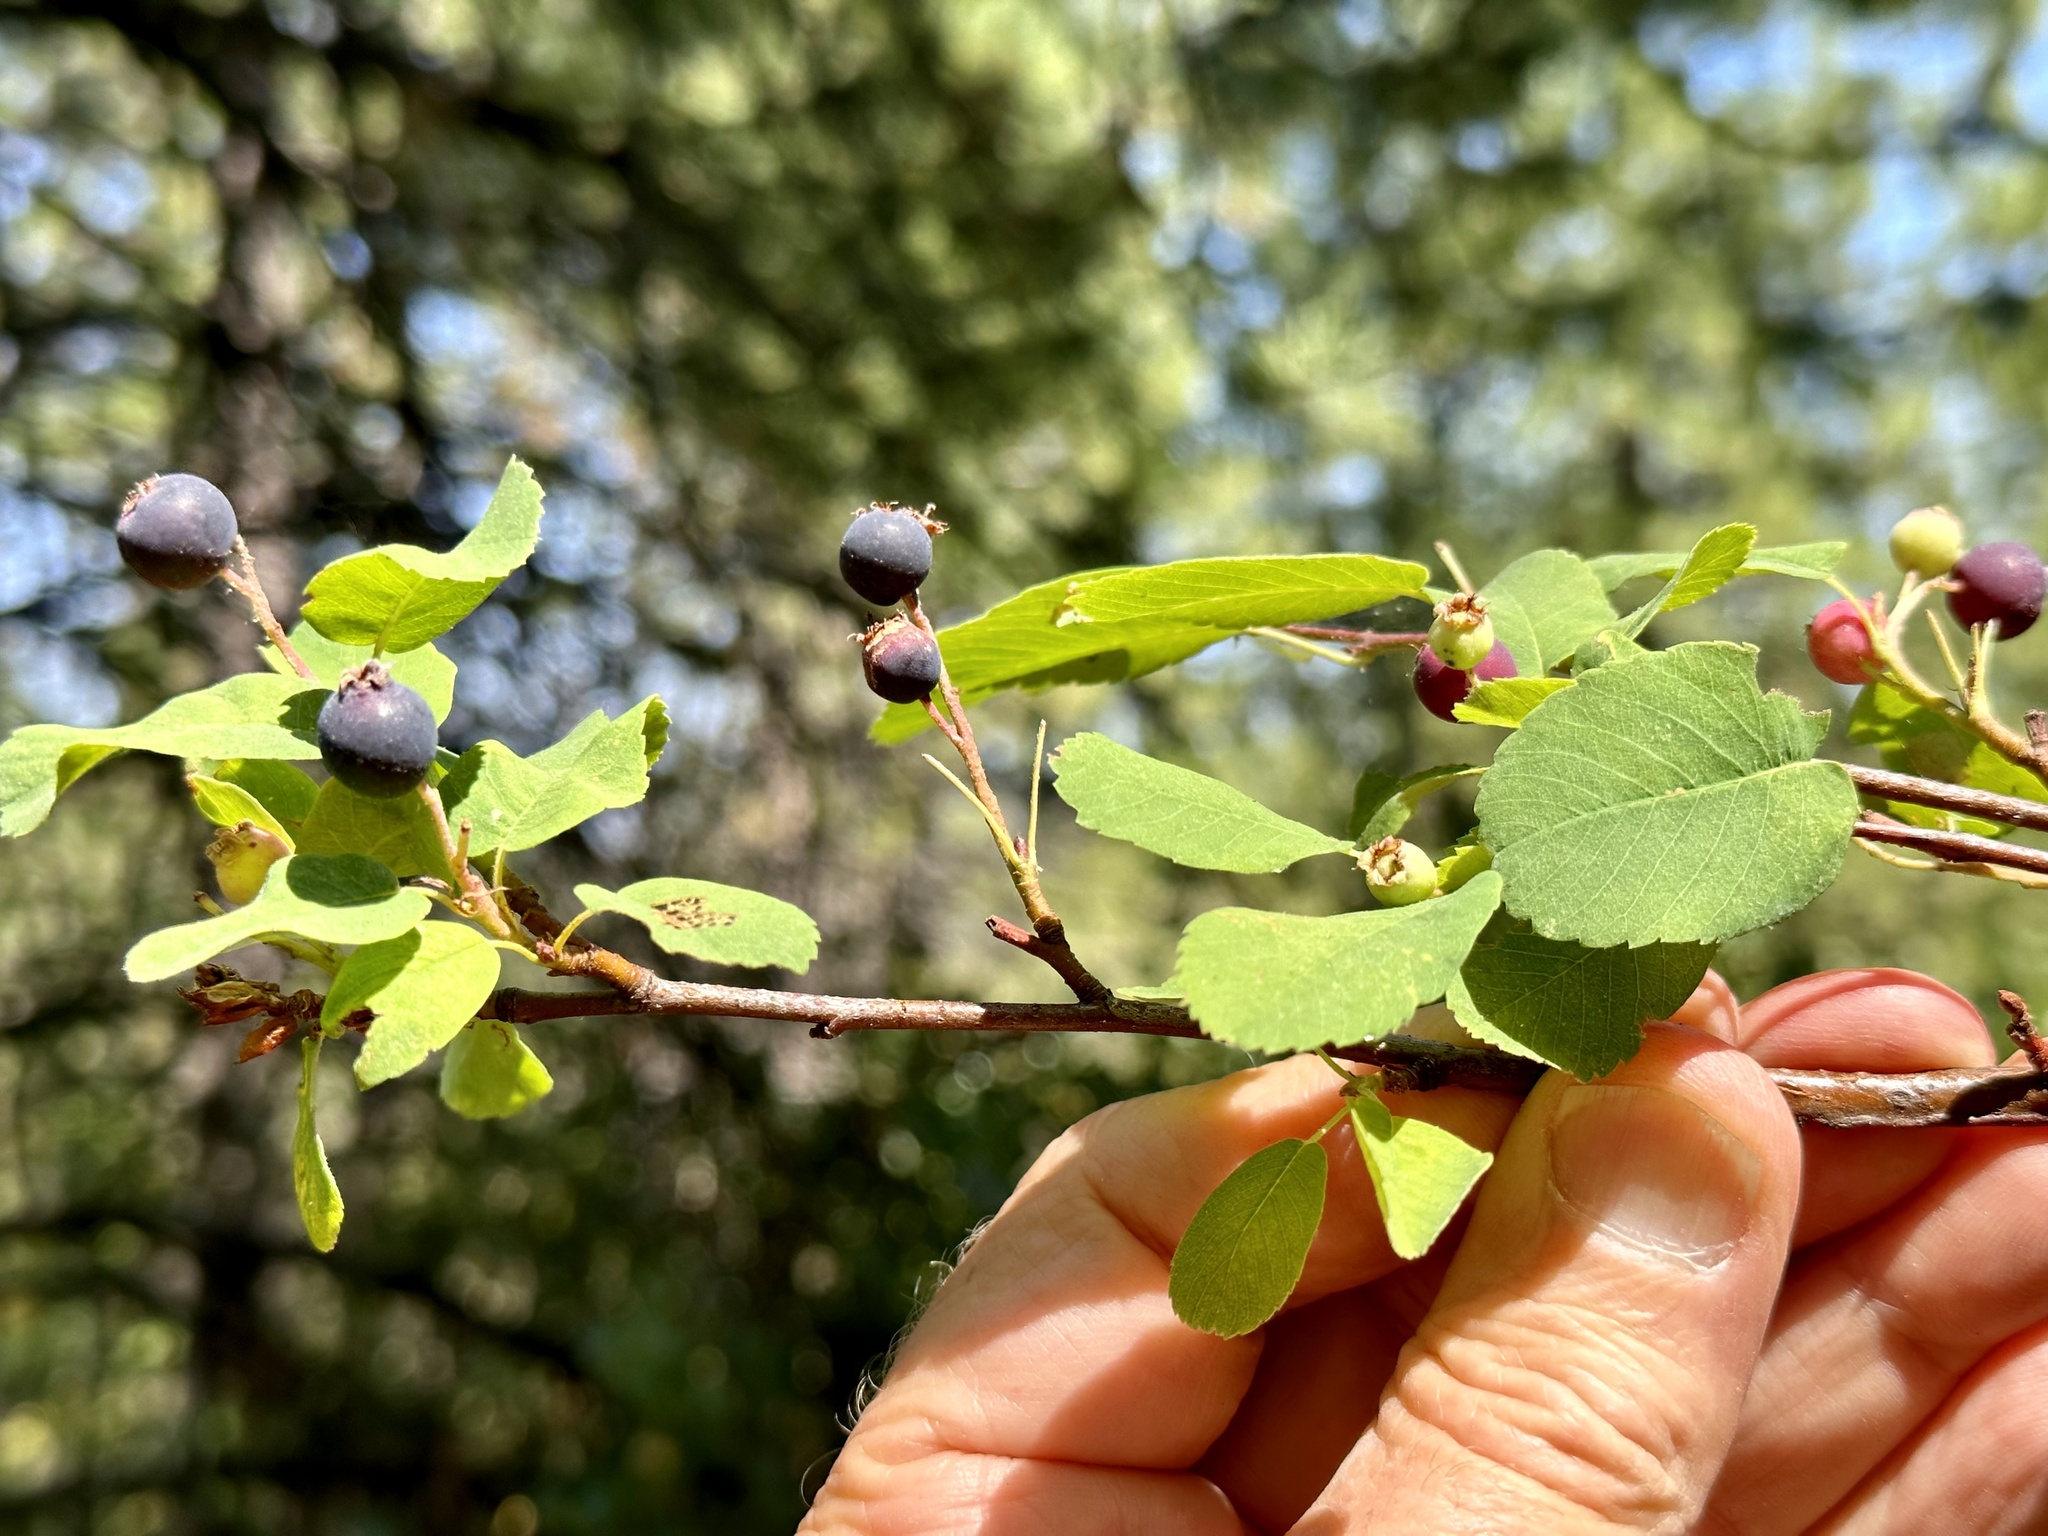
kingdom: Plantae
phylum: Tracheophyta
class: Magnoliopsida
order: Rosales
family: Rosaceae
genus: Amelanchier
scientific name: Amelanchier alnifolia
